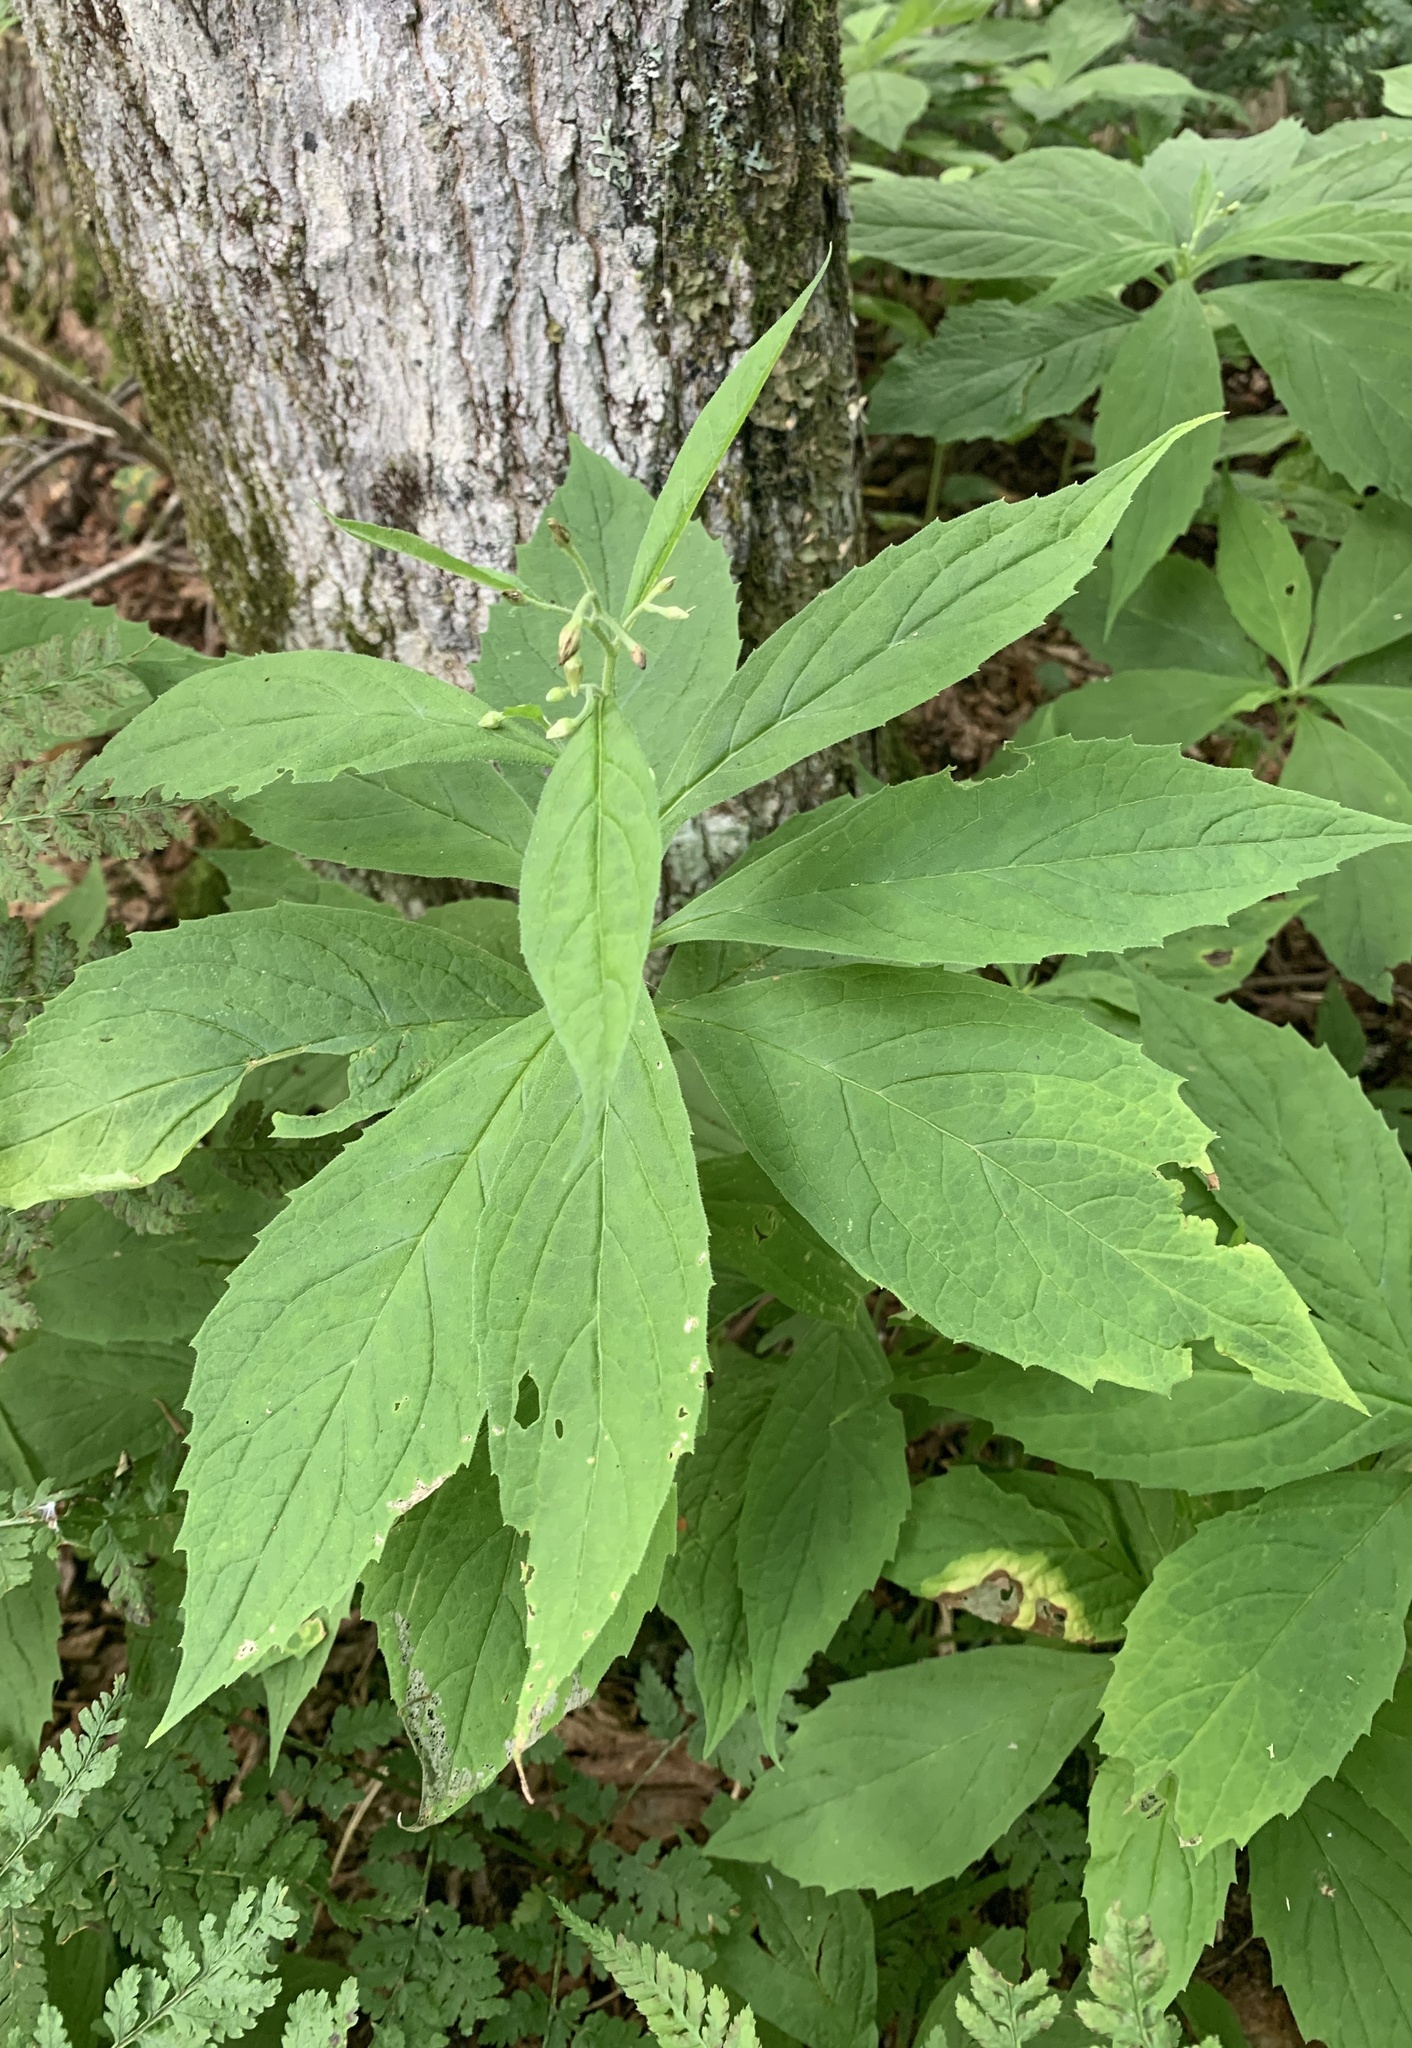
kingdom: Plantae
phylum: Tracheophyta
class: Magnoliopsida
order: Asterales
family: Asteraceae
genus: Oclemena
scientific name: Oclemena acuminata
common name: Mountain aster
